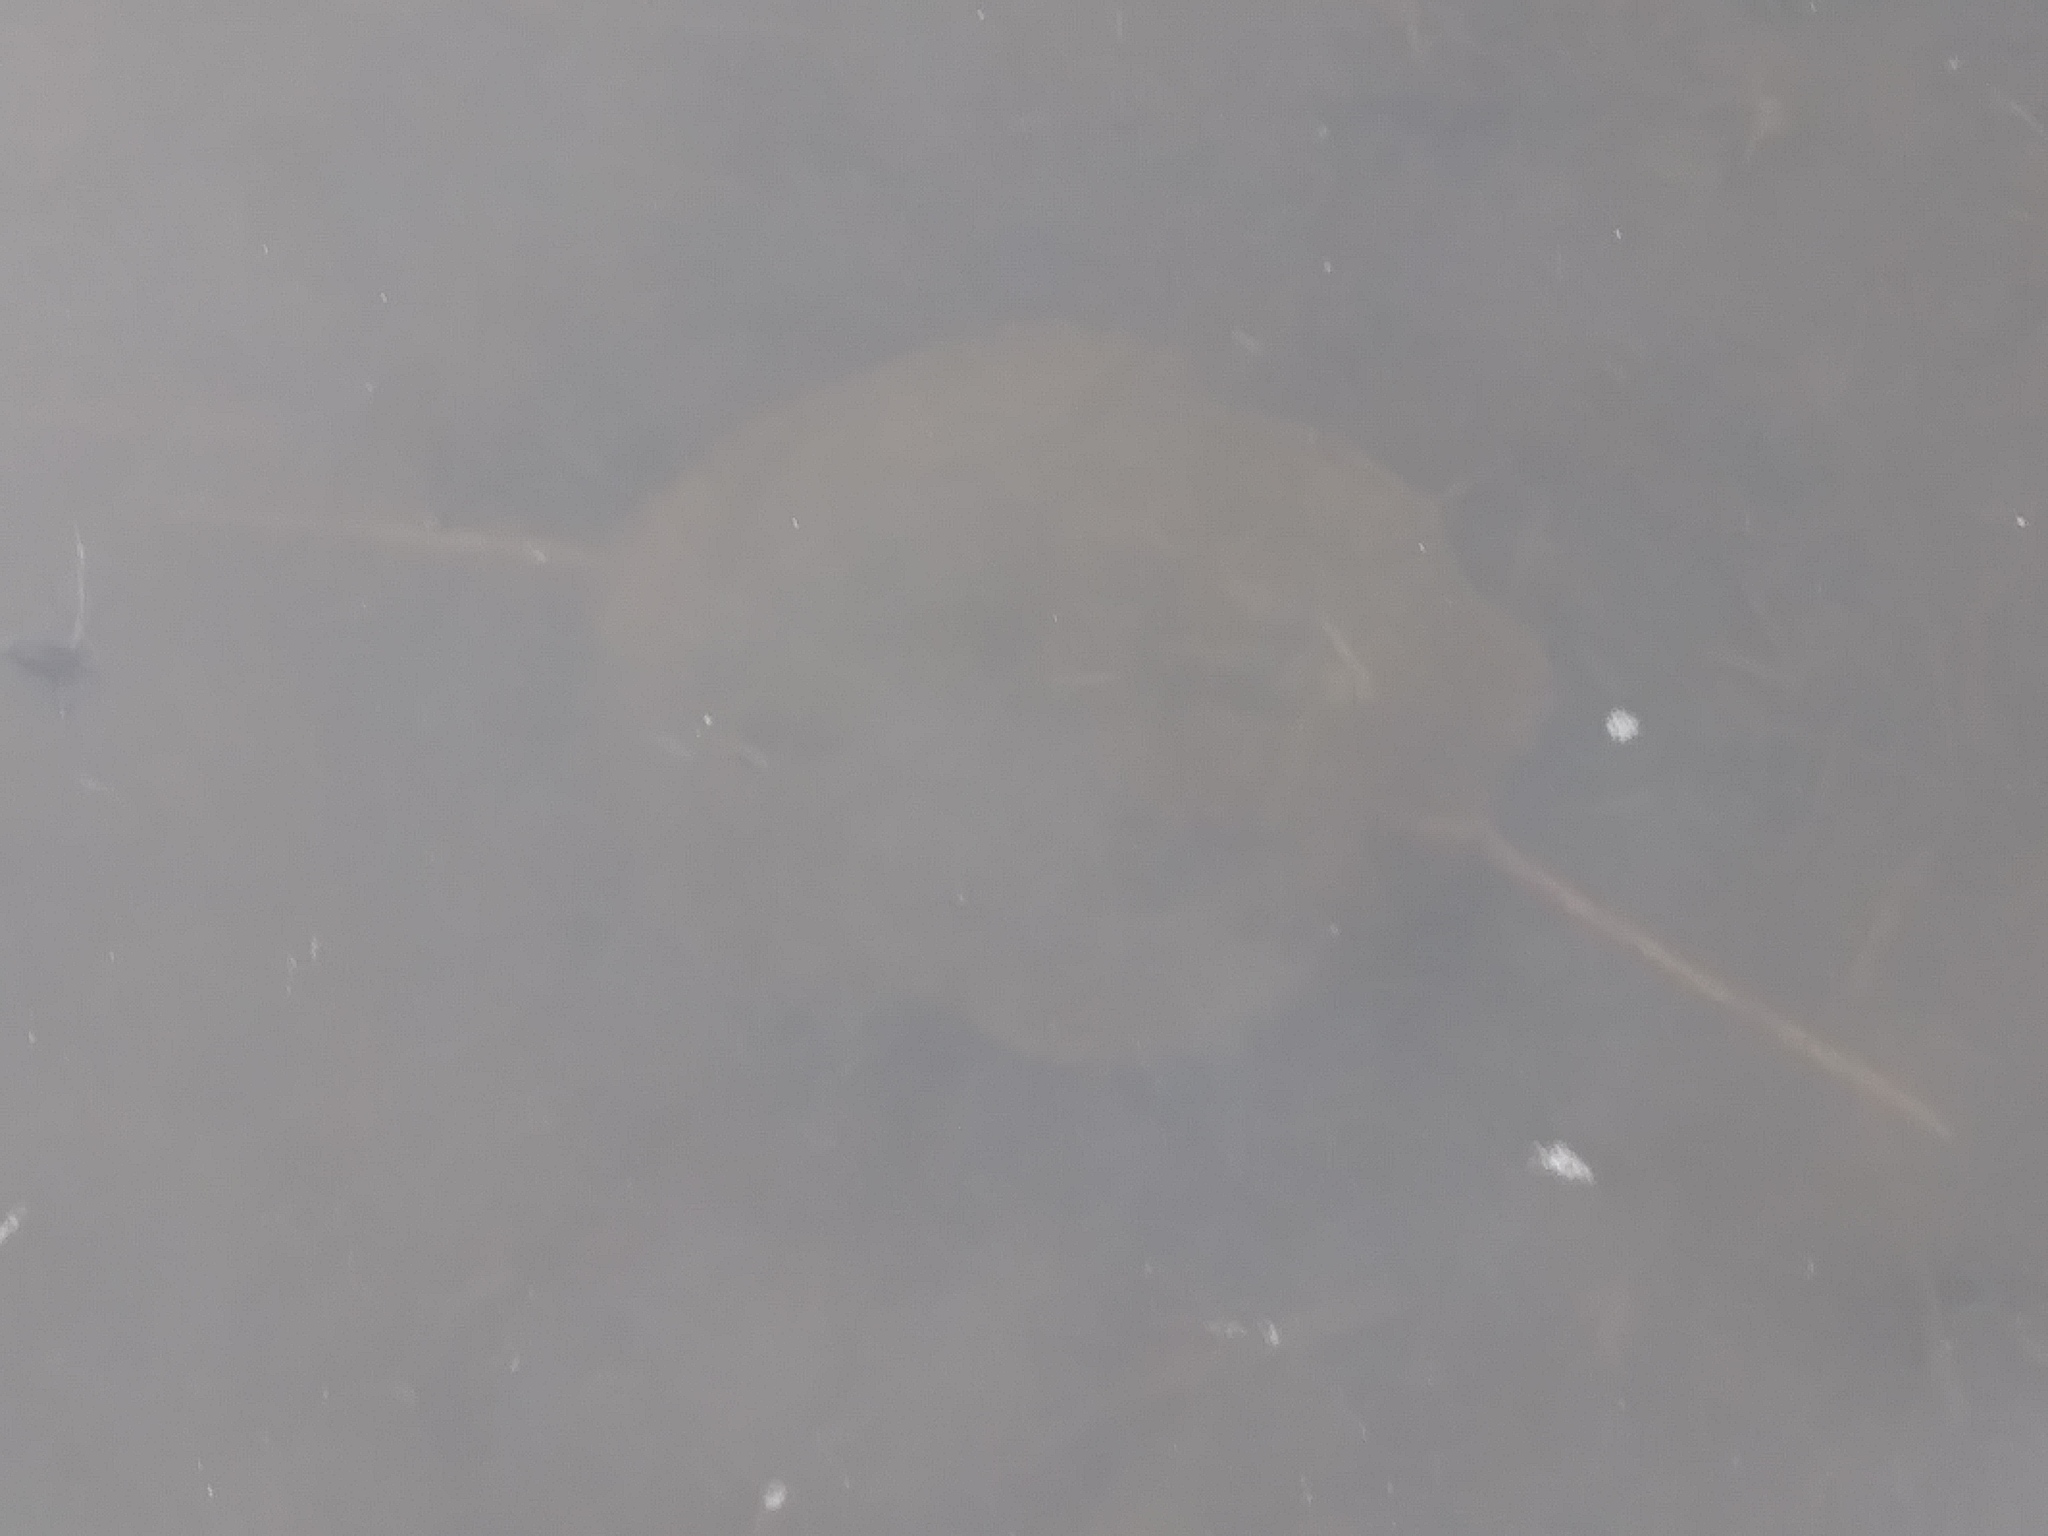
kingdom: Animalia
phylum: Chordata
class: Amphibia
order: Caudata
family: Ambystomatidae
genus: Ambystoma
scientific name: Ambystoma gracile
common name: Northwestern salamander
